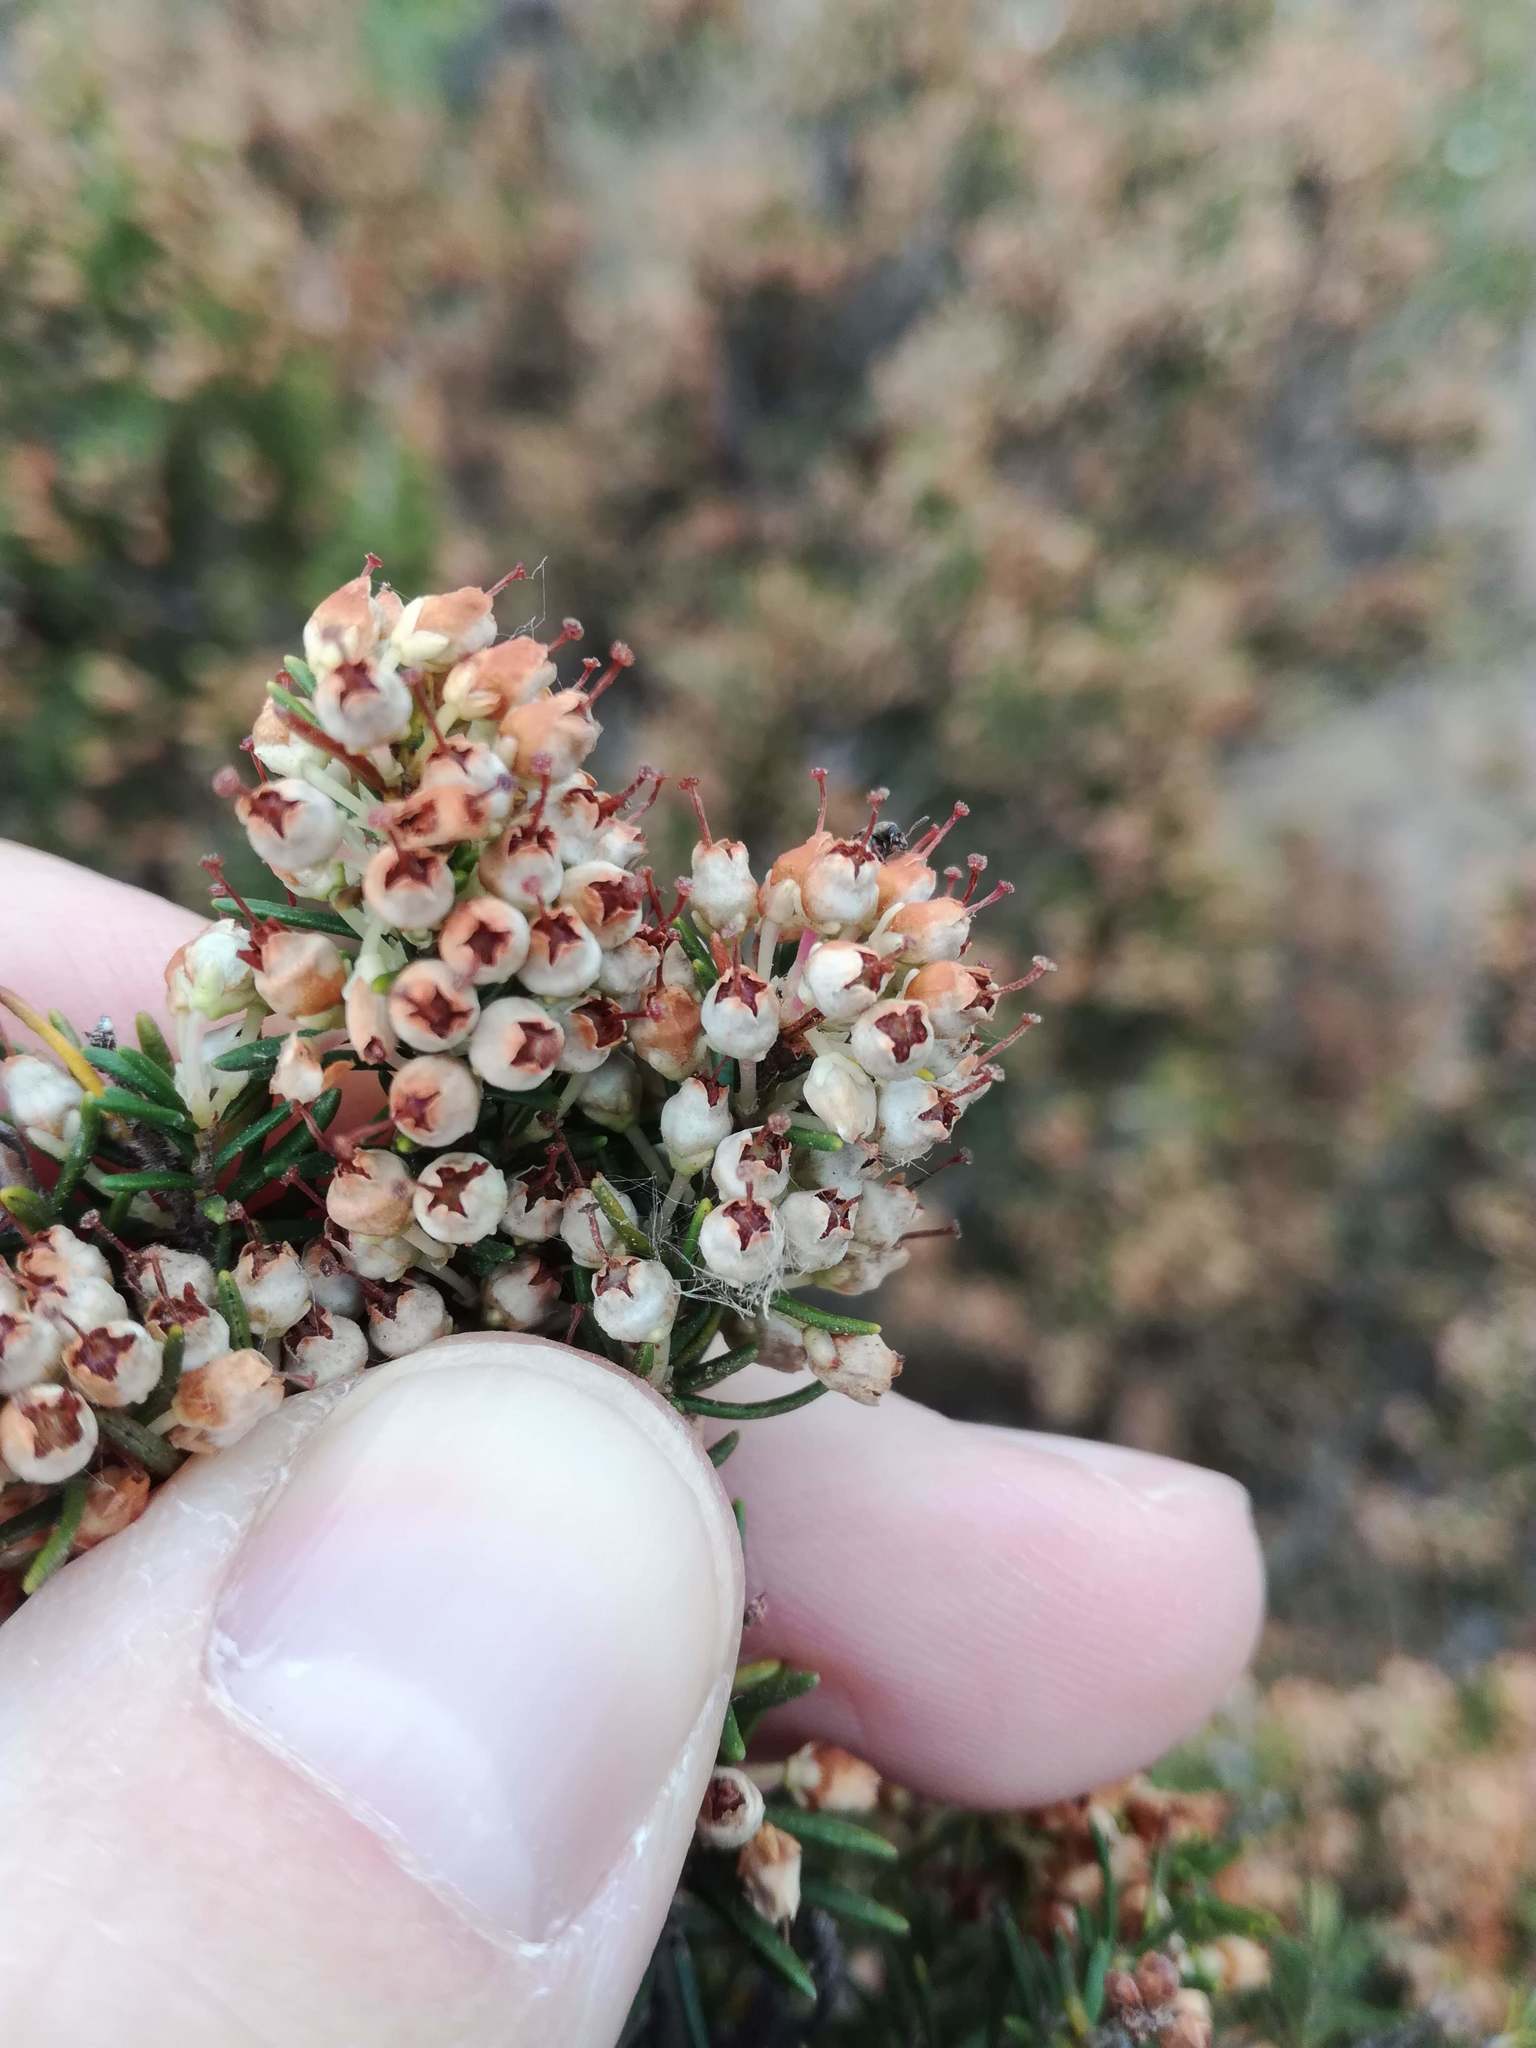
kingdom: Plantae
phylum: Tracheophyta
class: Magnoliopsida
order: Ericales
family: Ericaceae
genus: Erica
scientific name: Erica arborea
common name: Tree heath
